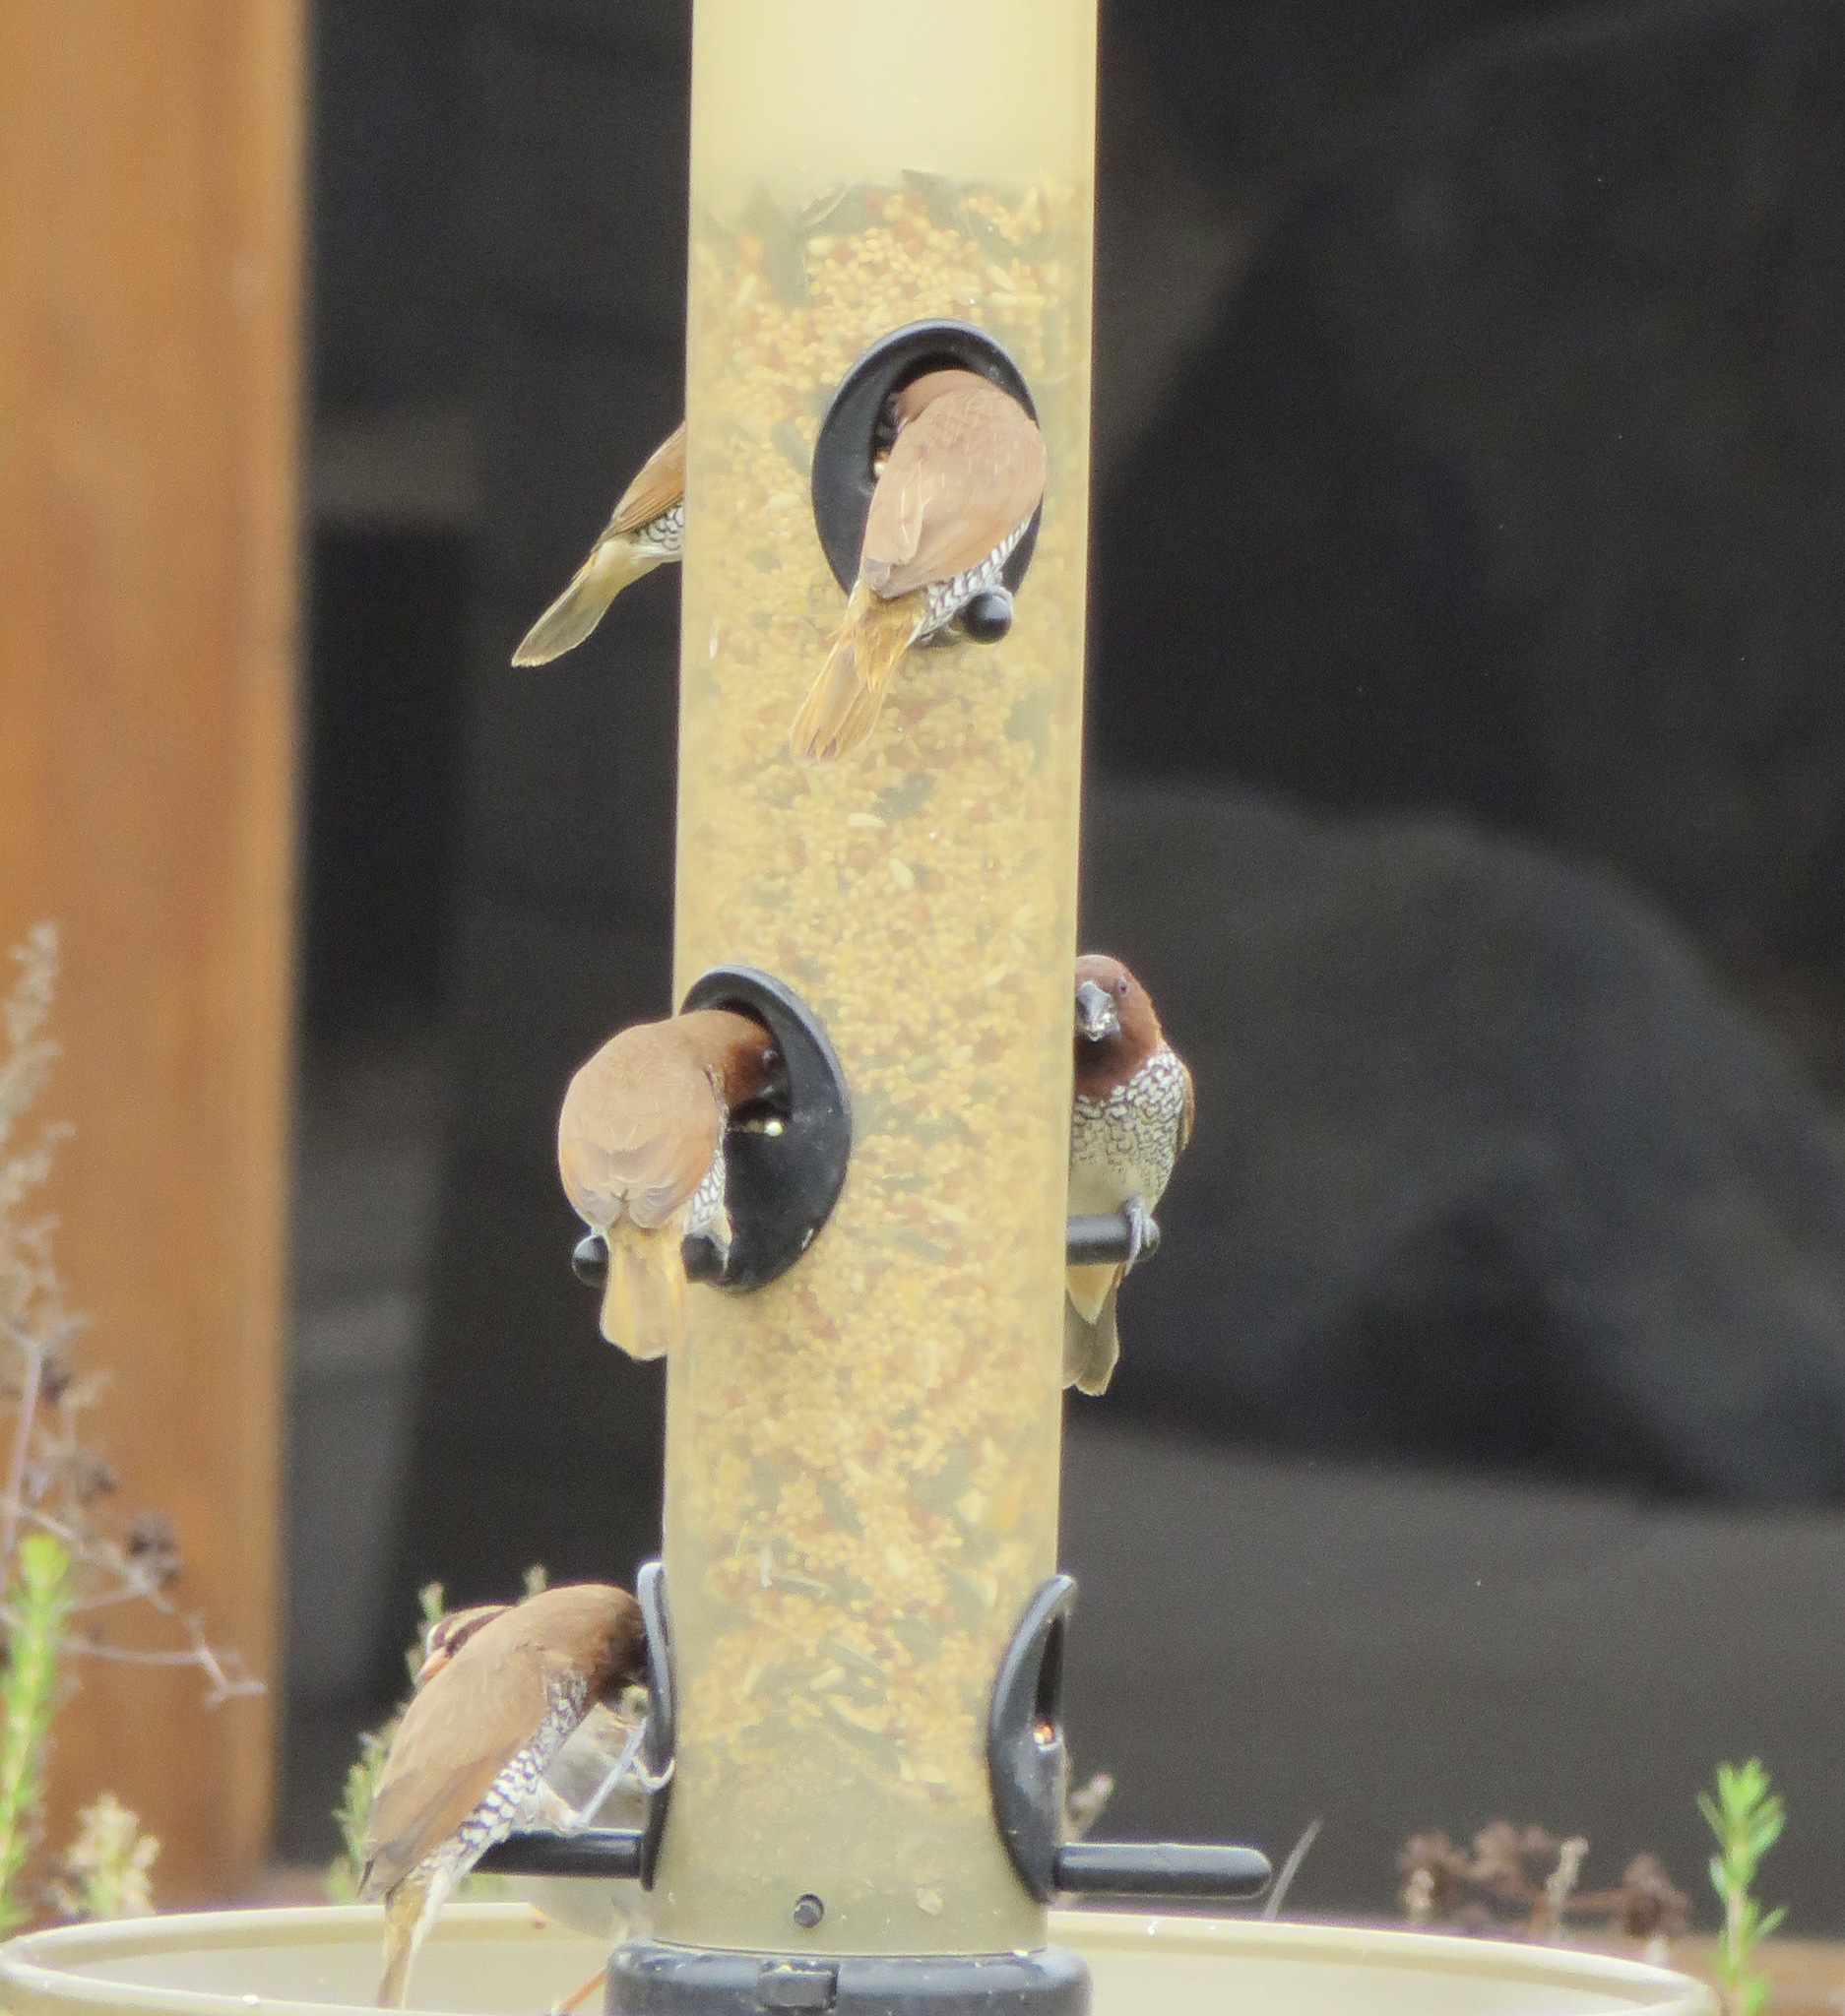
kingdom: Animalia
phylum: Chordata
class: Aves
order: Passeriformes
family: Estrildidae
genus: Lonchura
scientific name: Lonchura punctulata
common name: Scaly-breasted munia
